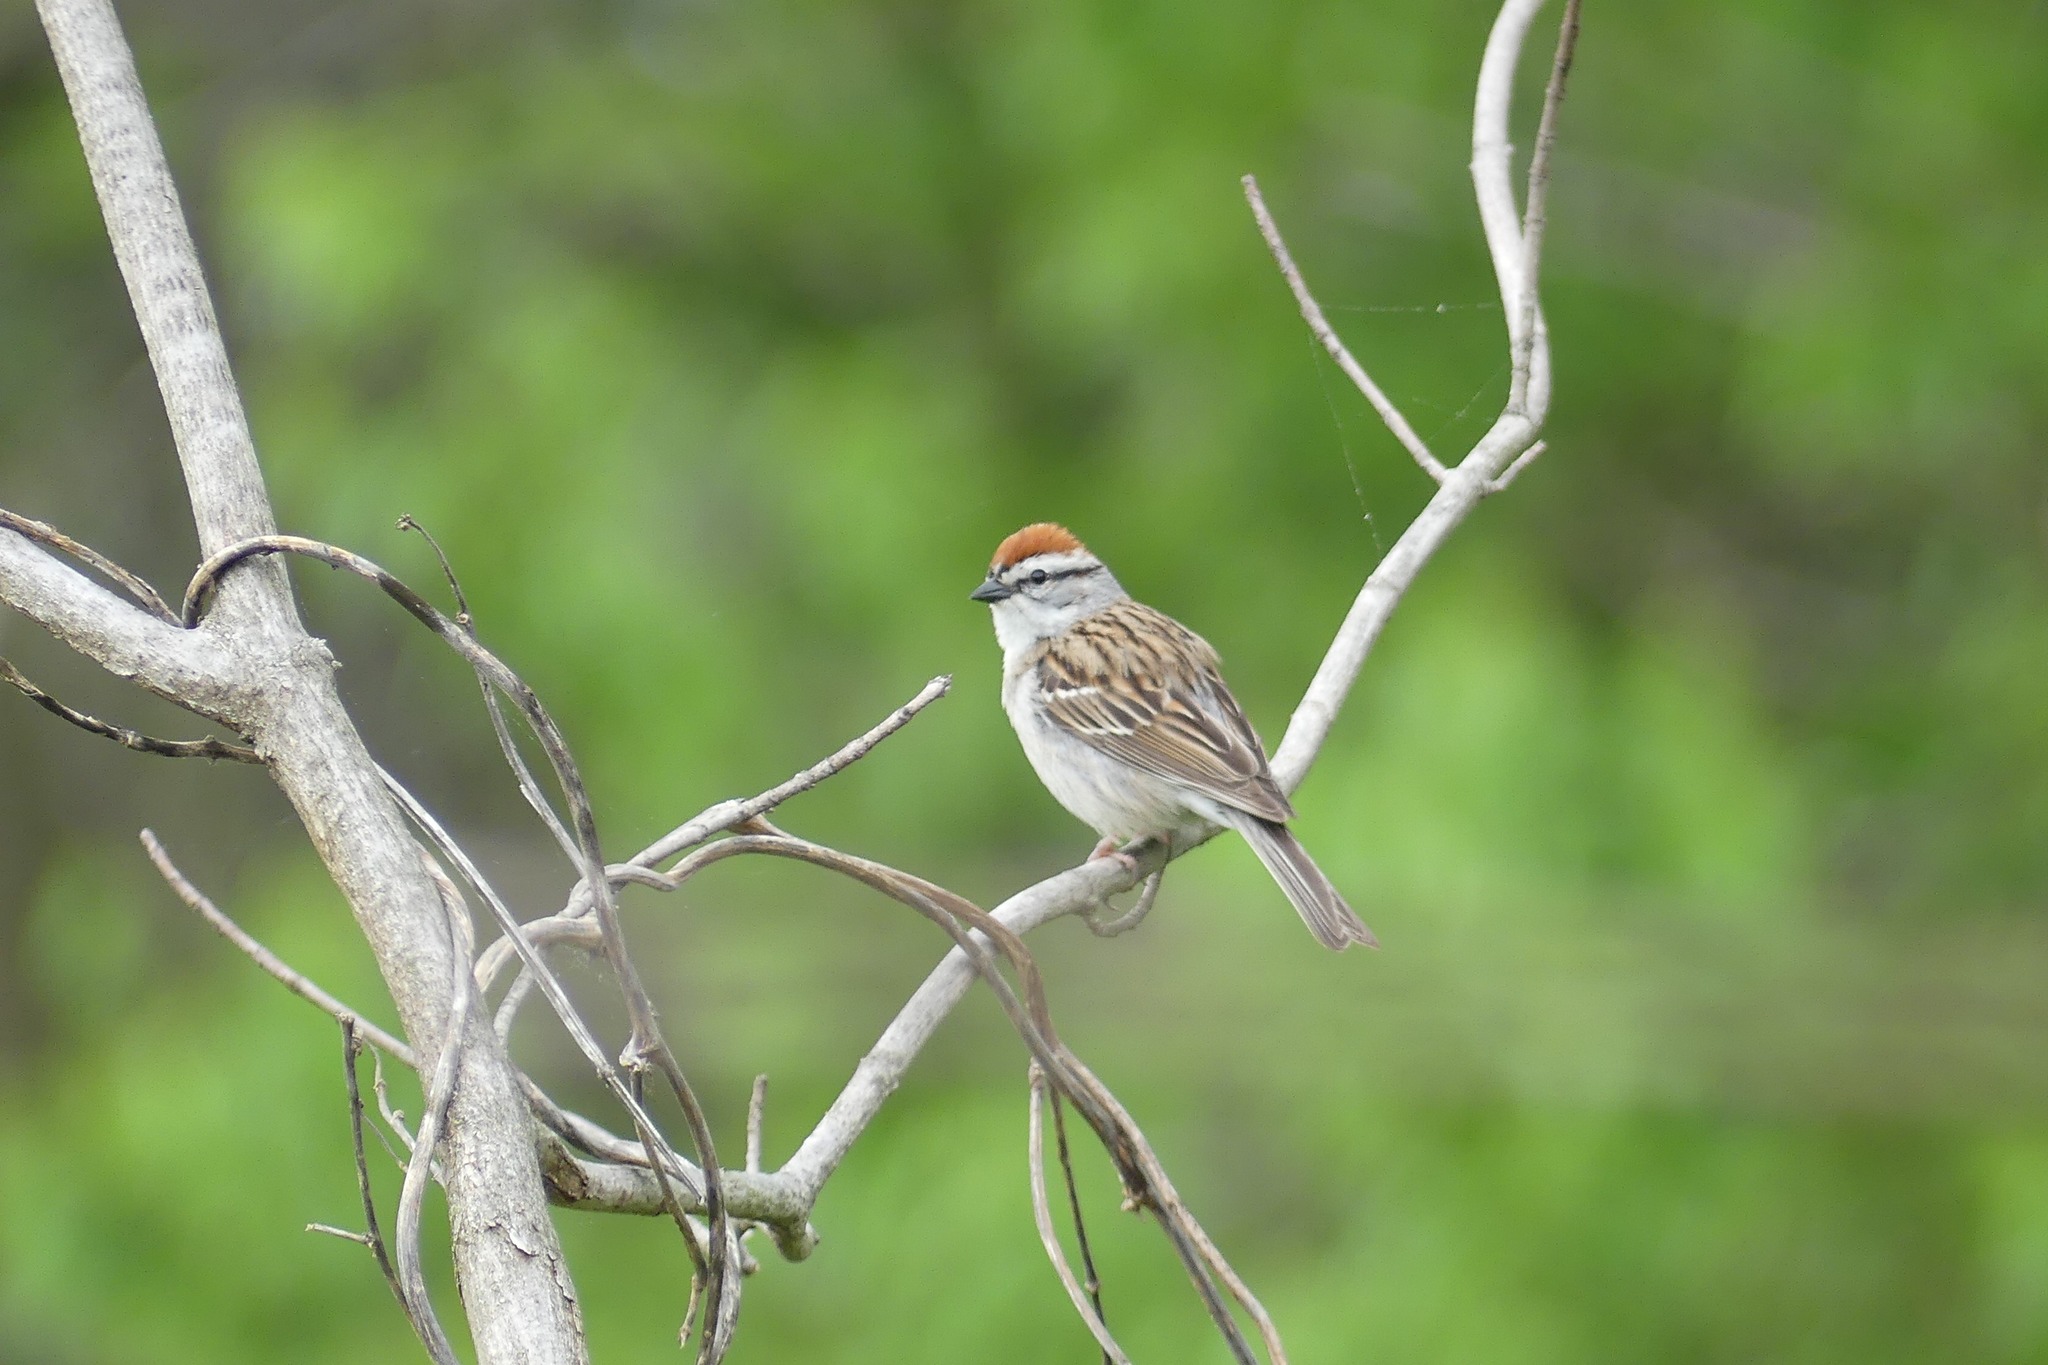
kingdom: Animalia
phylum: Chordata
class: Aves
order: Passeriformes
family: Passerellidae
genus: Spizella
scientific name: Spizella passerina
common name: Chipping sparrow
